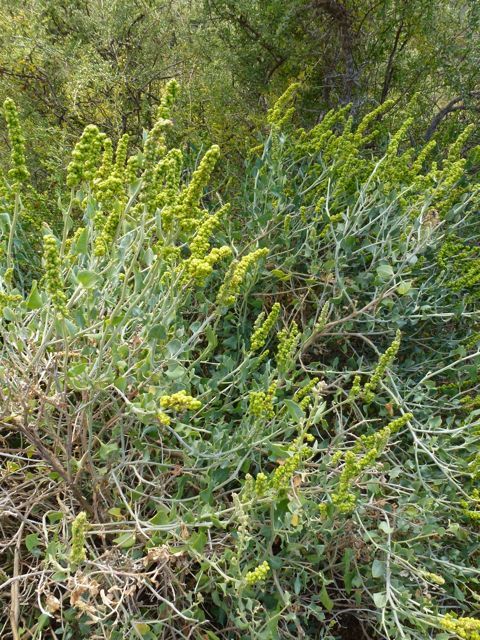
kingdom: Plantae
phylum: Tracheophyta
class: Magnoliopsida
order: Caryophyllales
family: Amaranthaceae
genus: Exomis
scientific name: Exomis albicans
